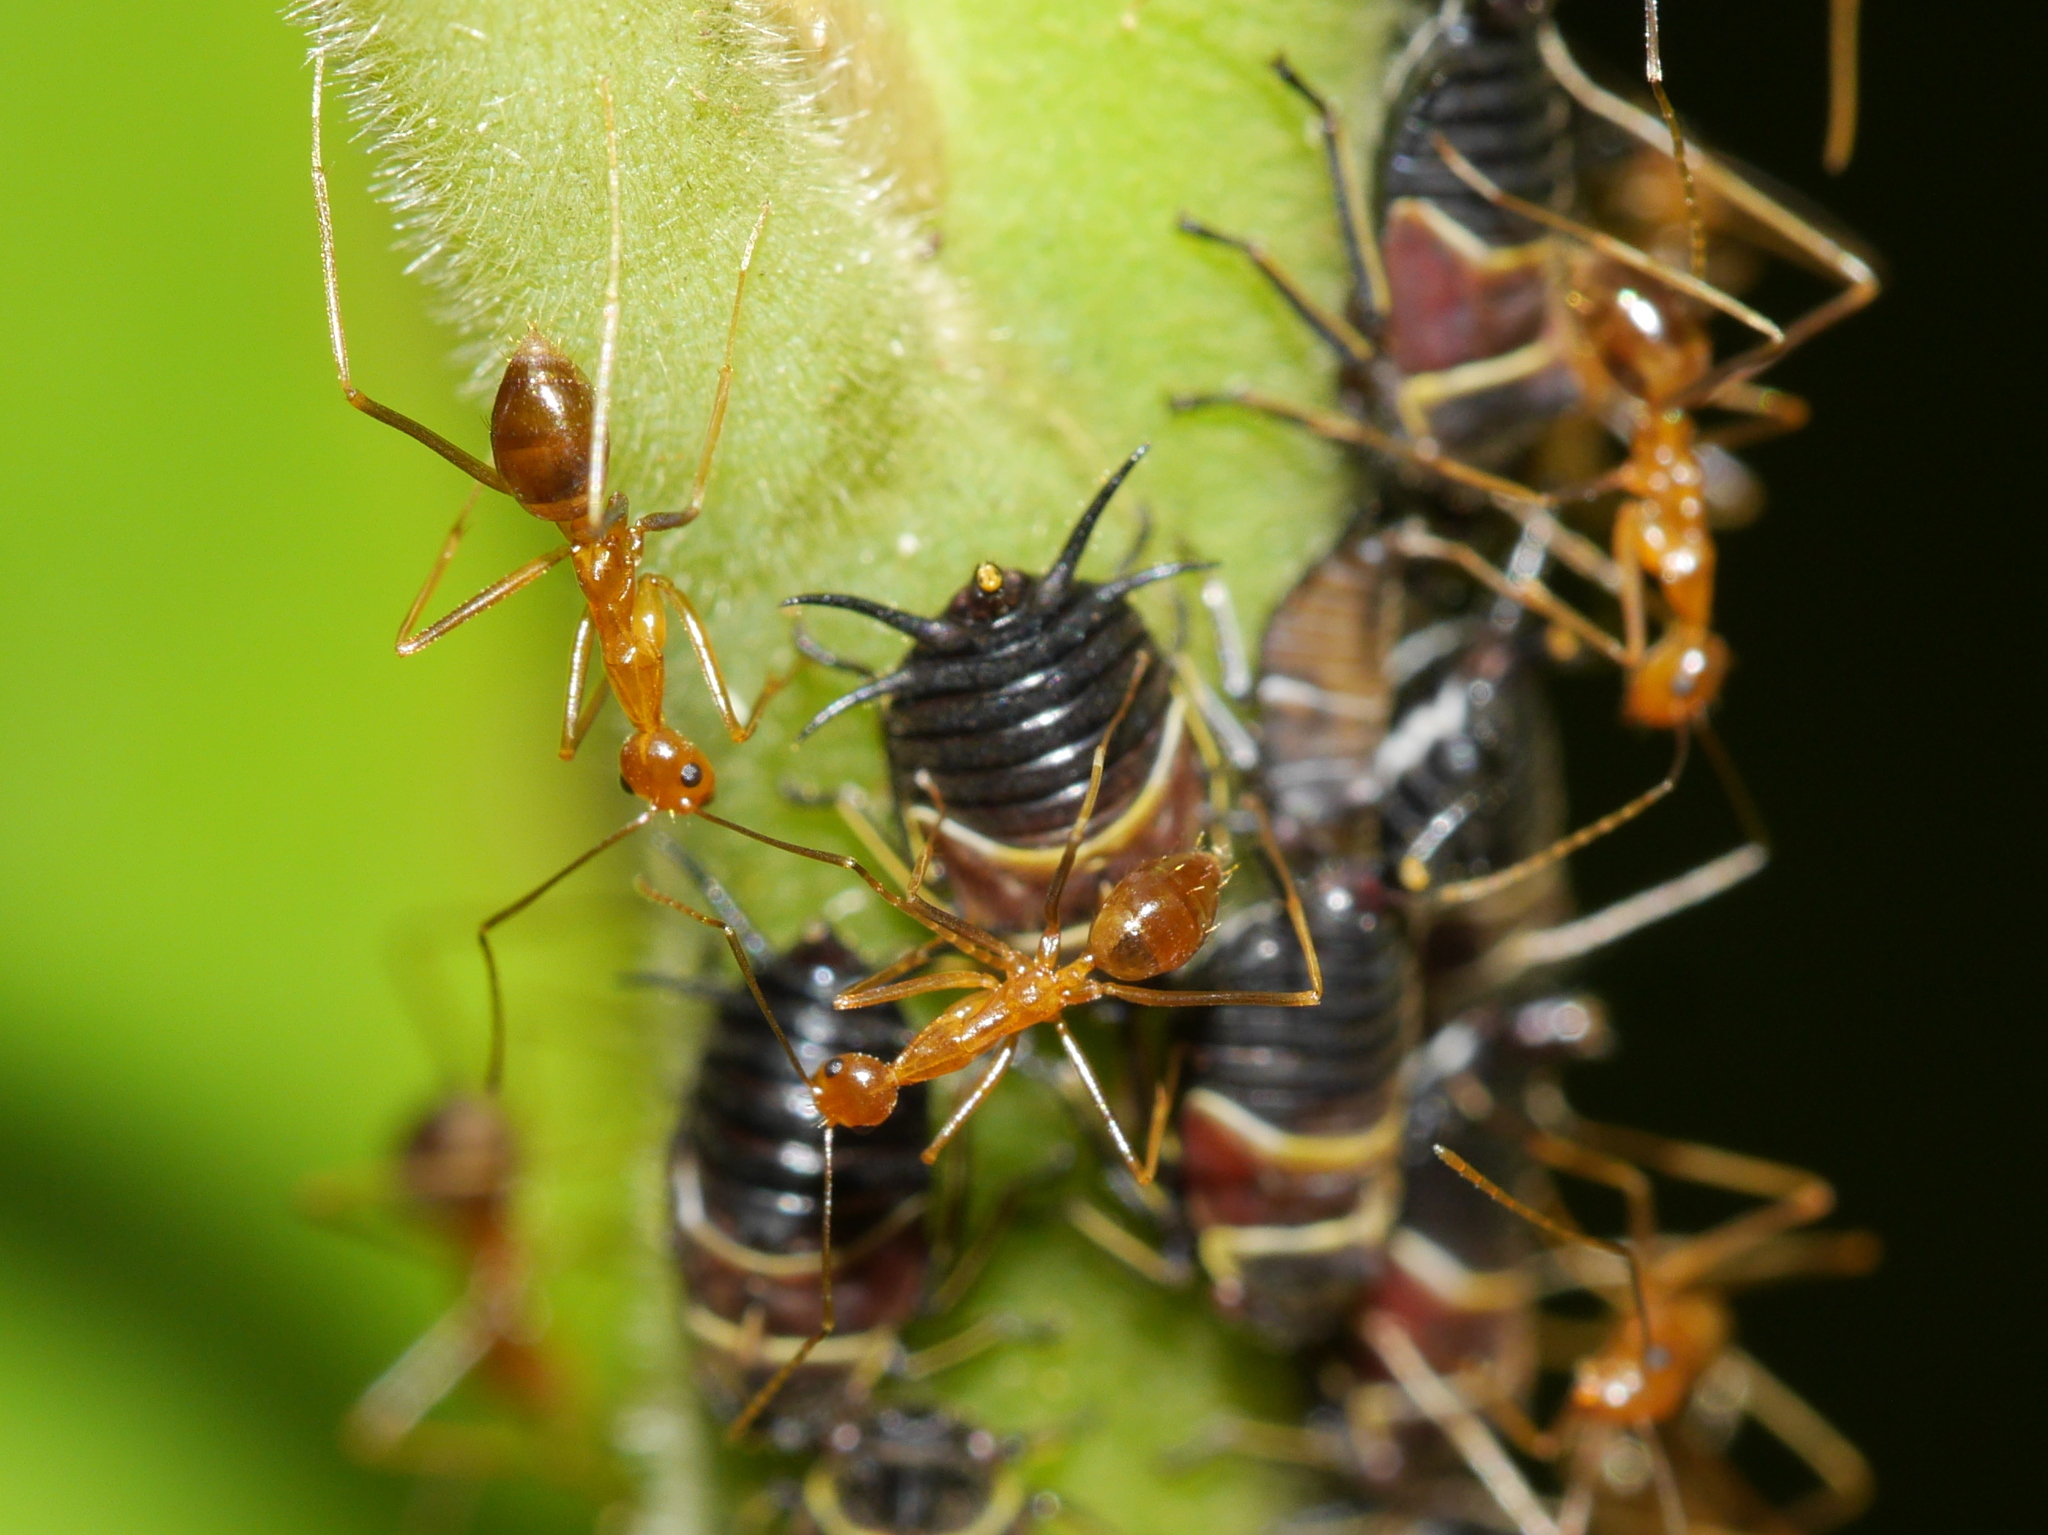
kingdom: Animalia
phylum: Arthropoda
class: Insecta
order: Hymenoptera
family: Formicidae
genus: Anoplolepis
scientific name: Anoplolepis gracilipes
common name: Ant
